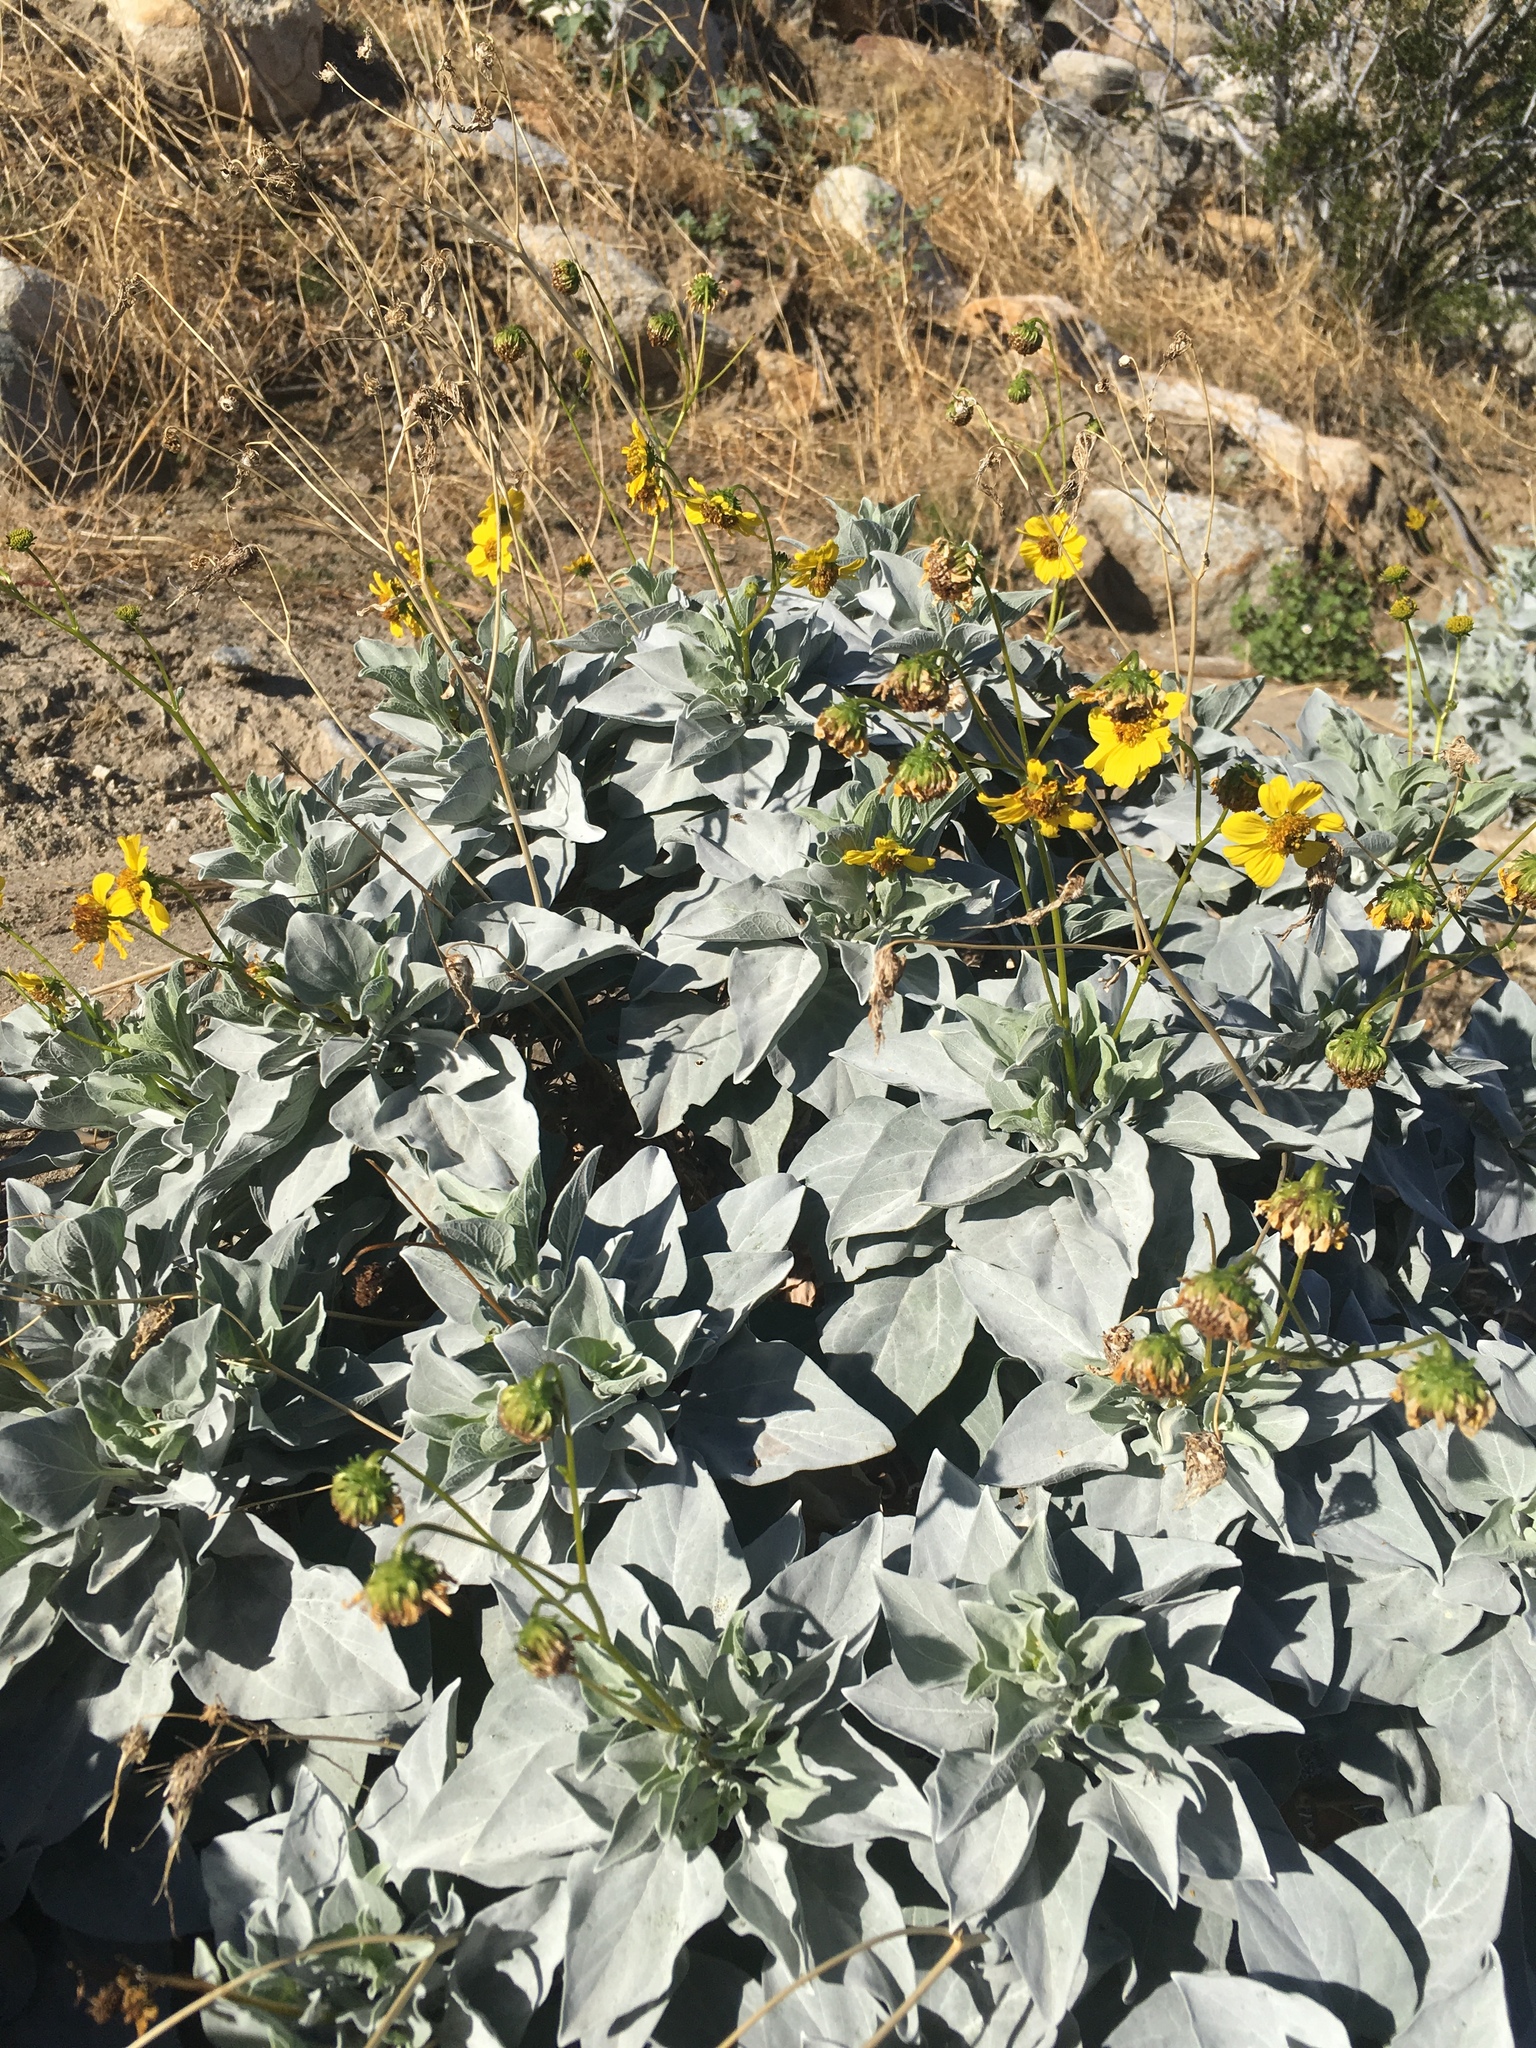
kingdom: Plantae
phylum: Tracheophyta
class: Magnoliopsida
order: Asterales
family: Asteraceae
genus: Encelia
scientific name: Encelia farinosa
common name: Brittlebush
